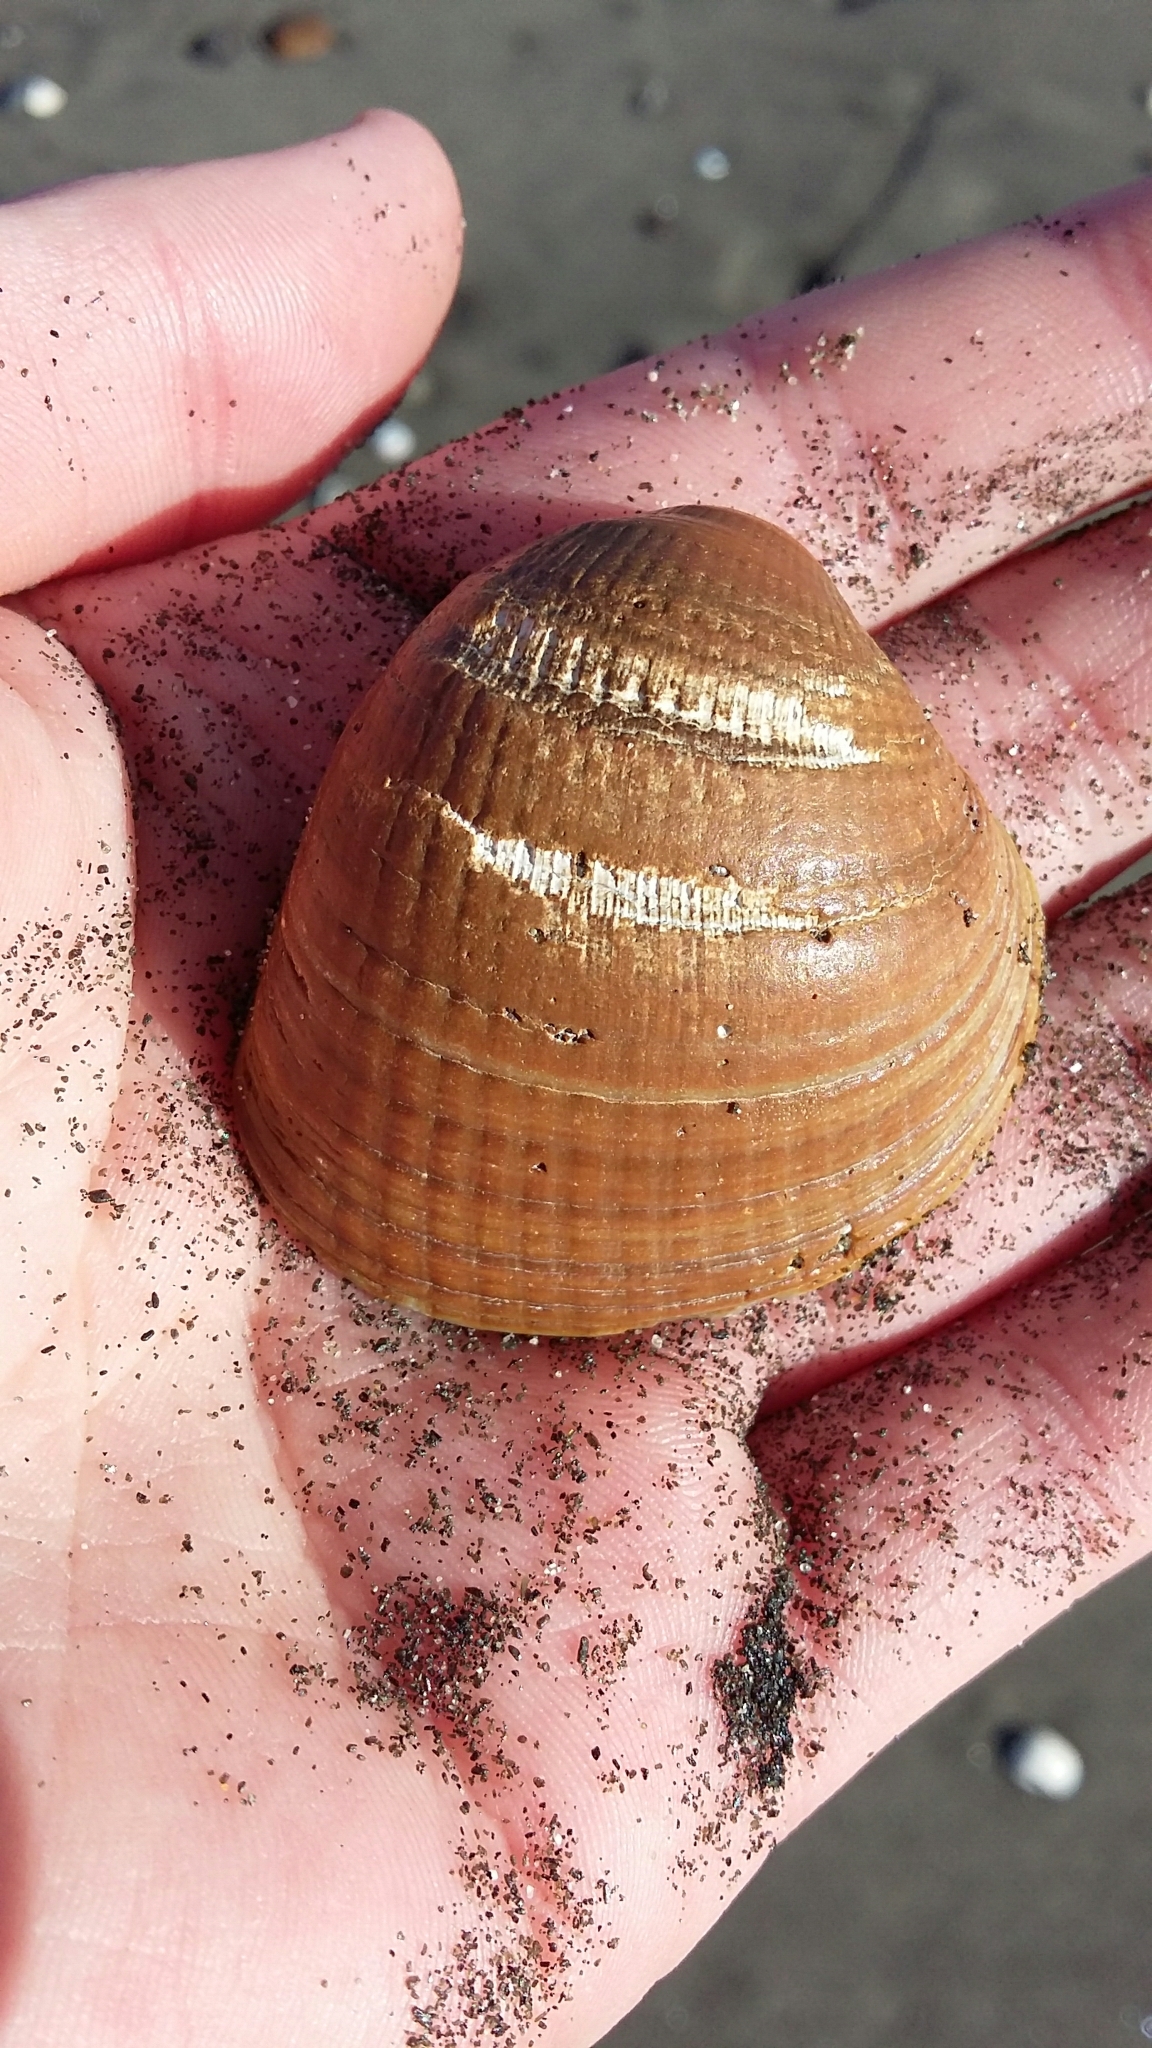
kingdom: Animalia
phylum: Mollusca
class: Bivalvia
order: Venerida
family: Veneridae
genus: Austrovenus
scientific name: Austrovenus stutchburyi
